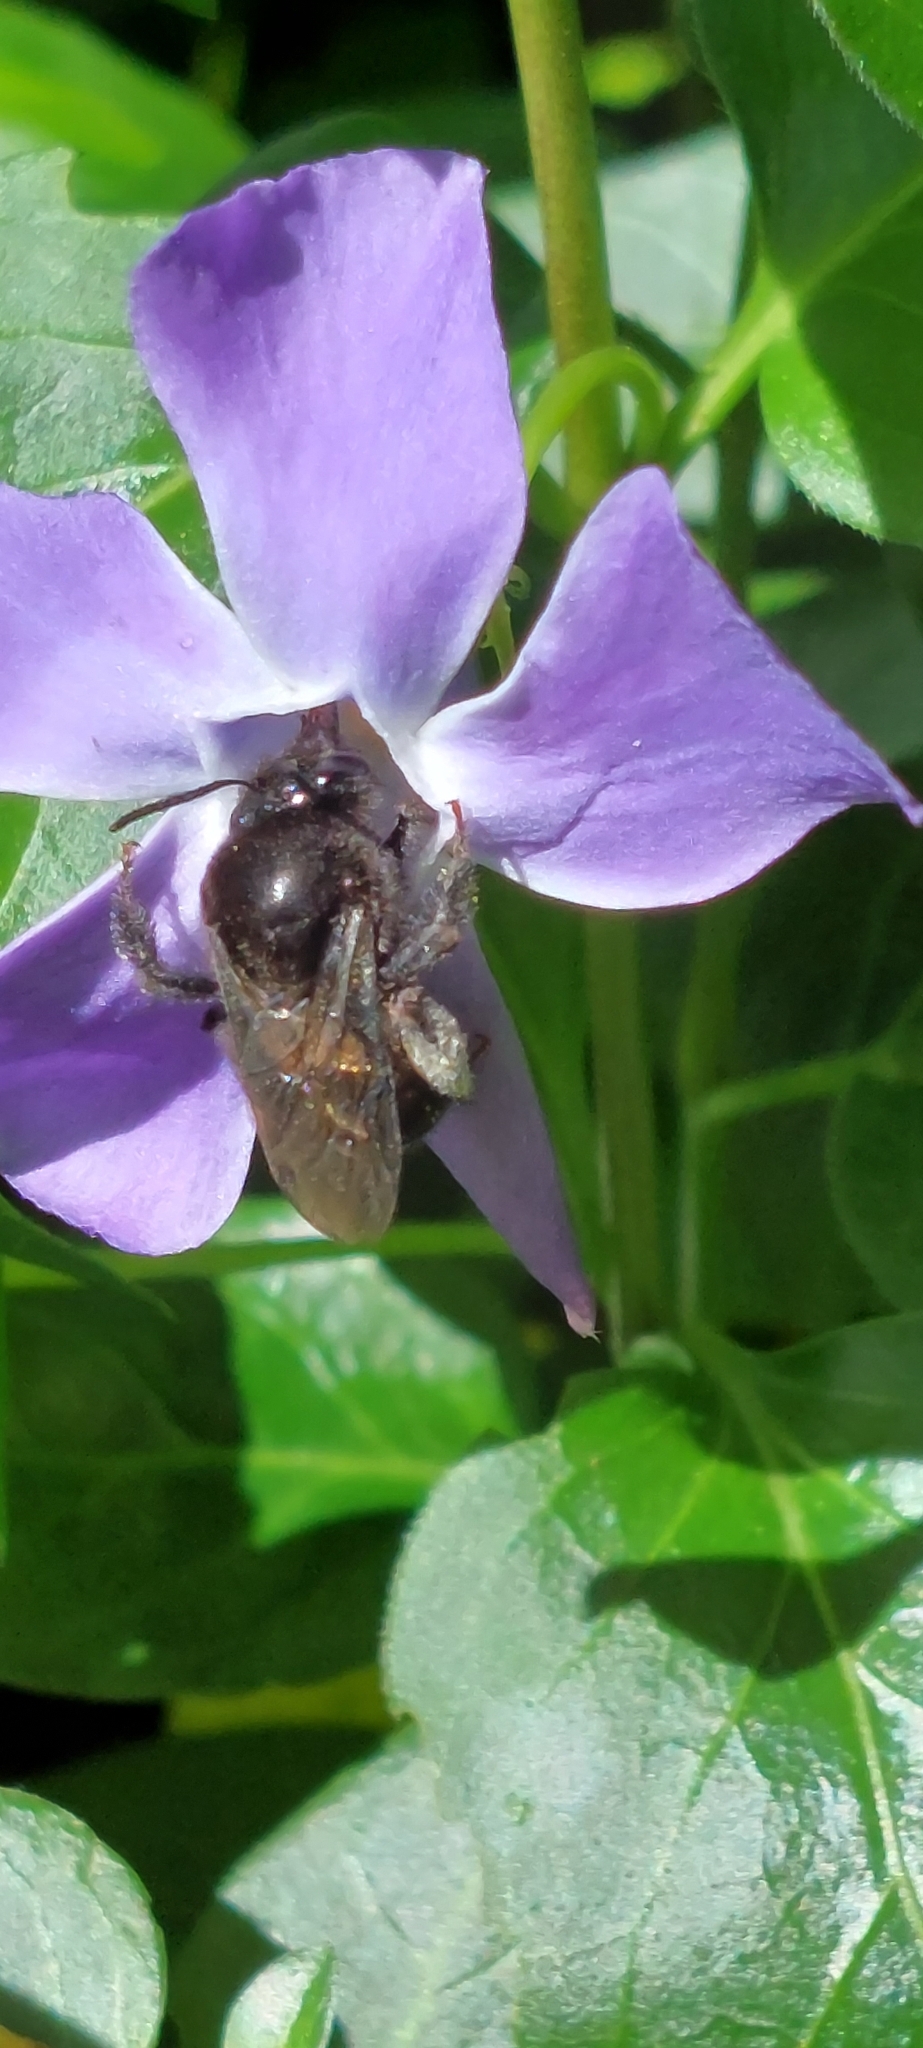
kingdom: Animalia
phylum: Arthropoda
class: Insecta
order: Hymenoptera
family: Apidae
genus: Thygater
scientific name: Thygater aethiops
